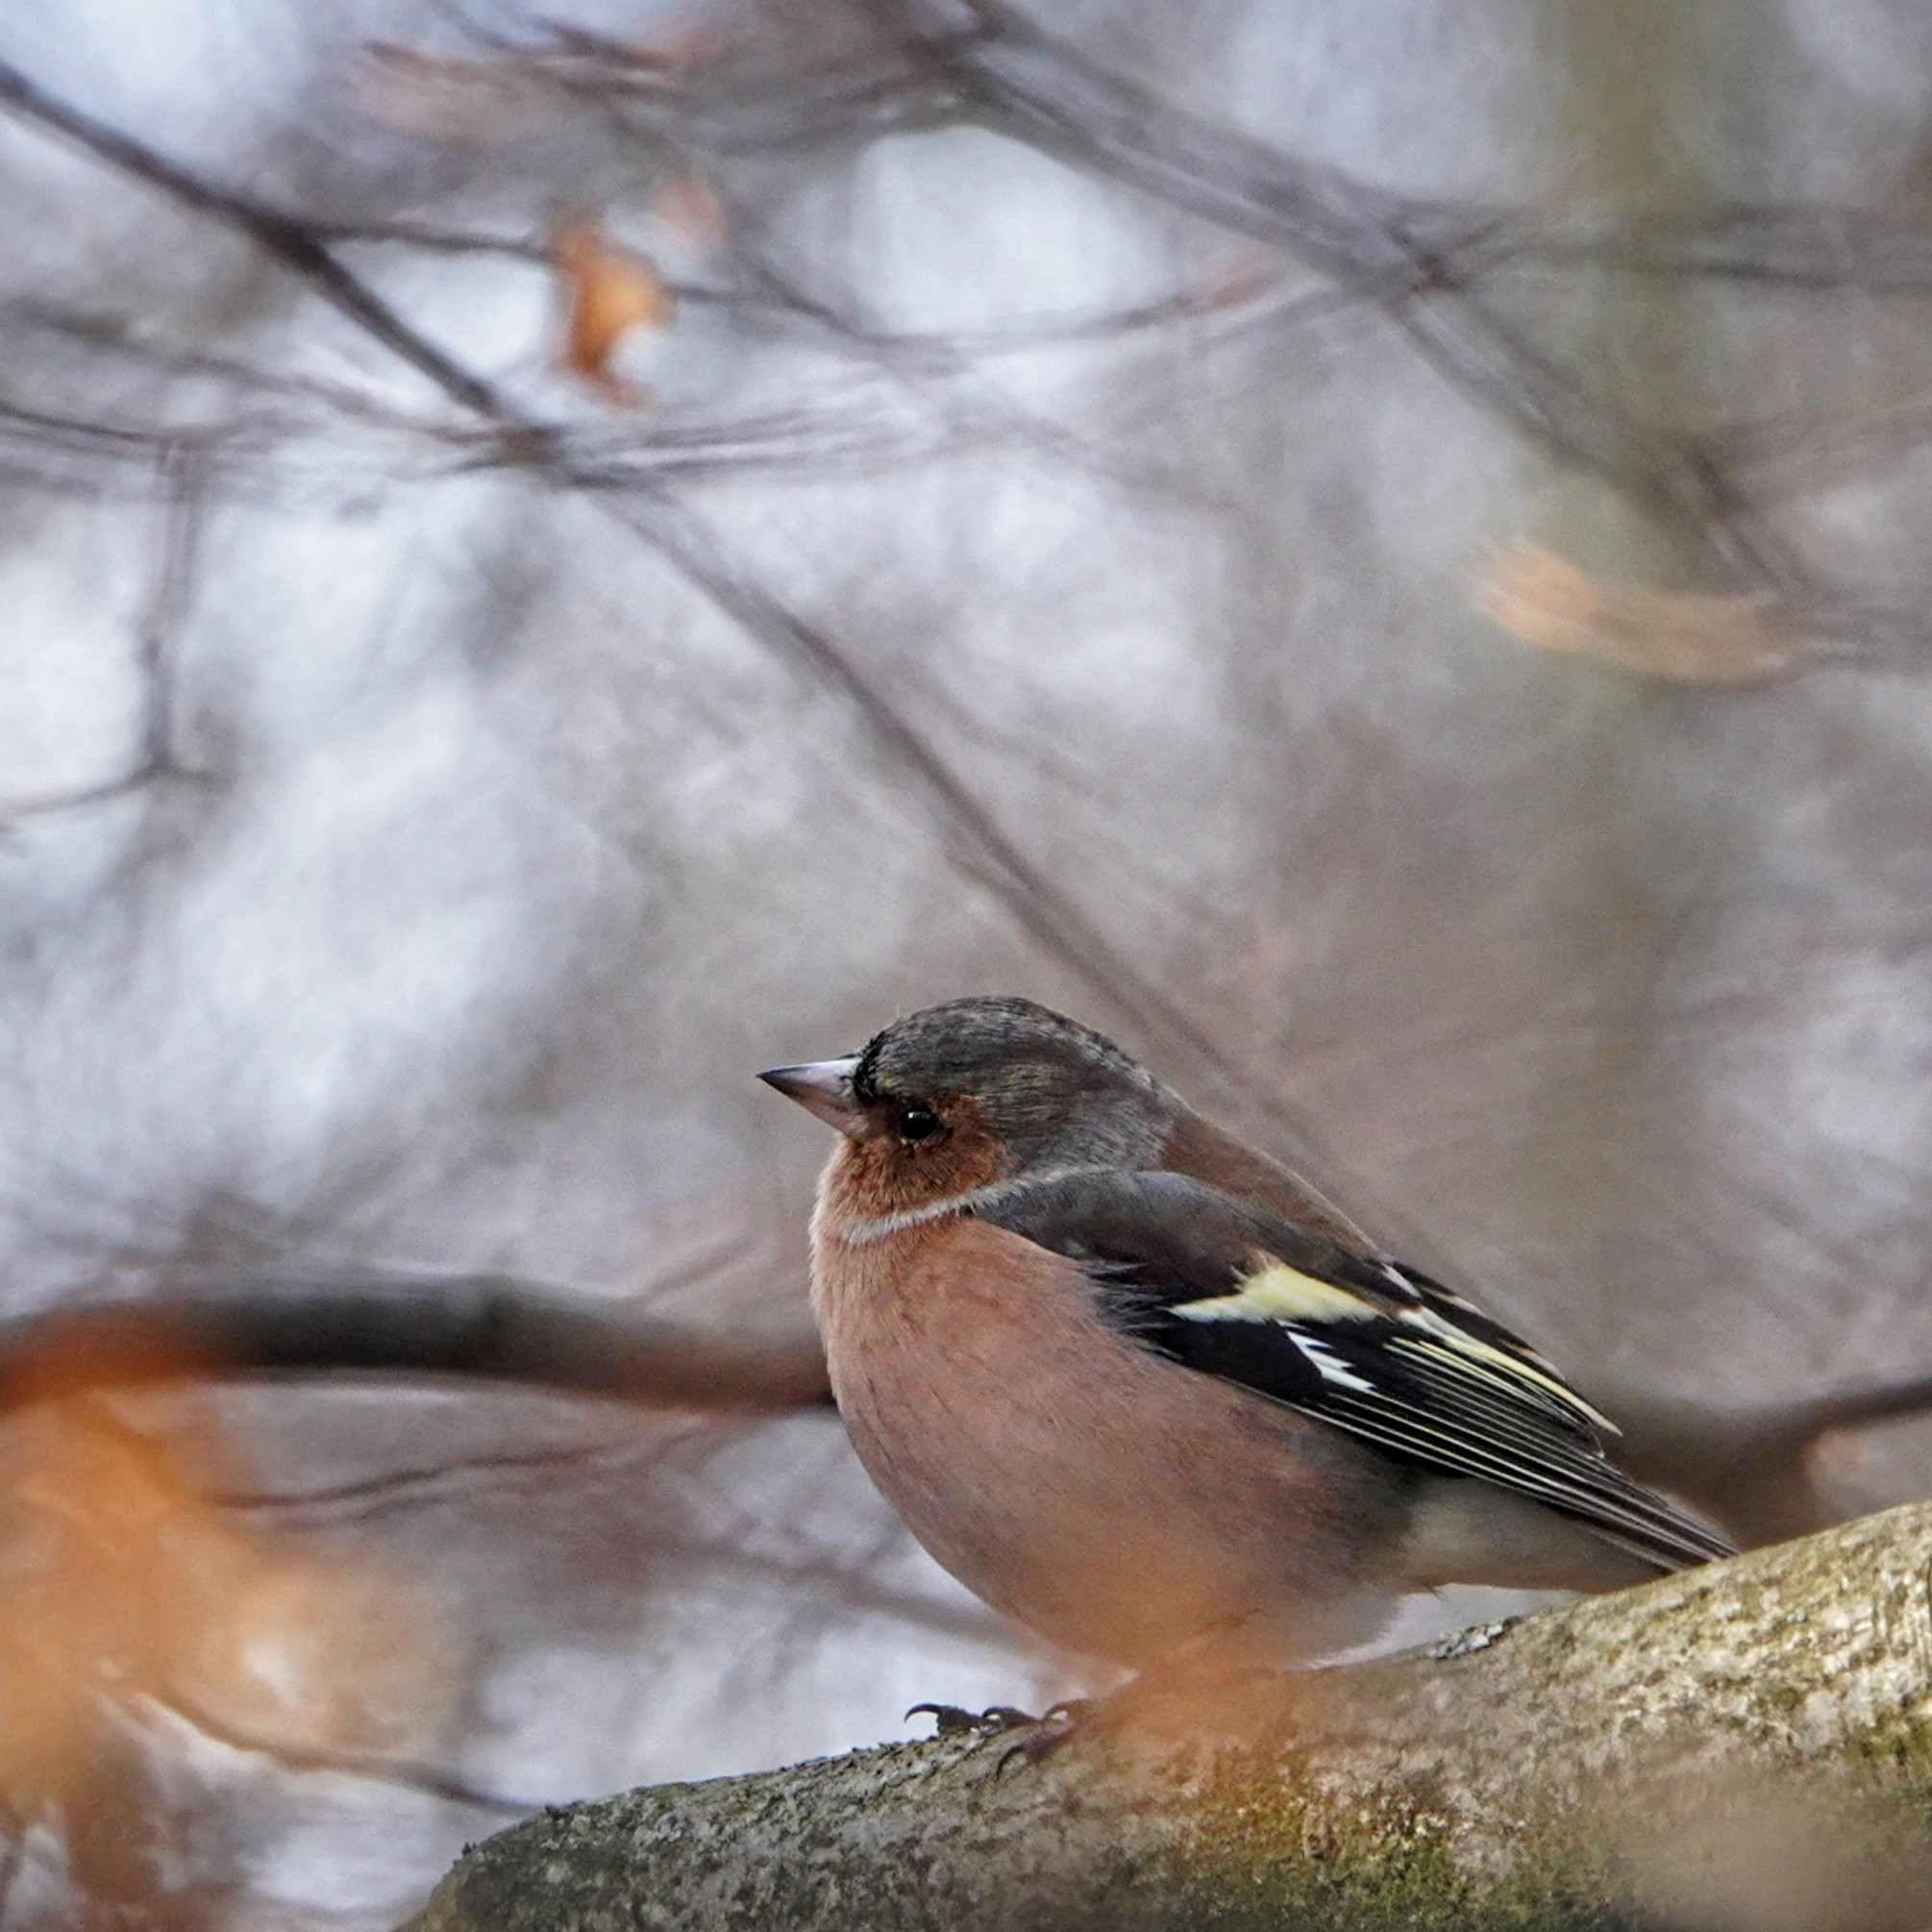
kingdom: Animalia
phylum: Chordata
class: Aves
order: Passeriformes
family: Fringillidae
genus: Fringilla
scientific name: Fringilla coelebs
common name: Common chaffinch
